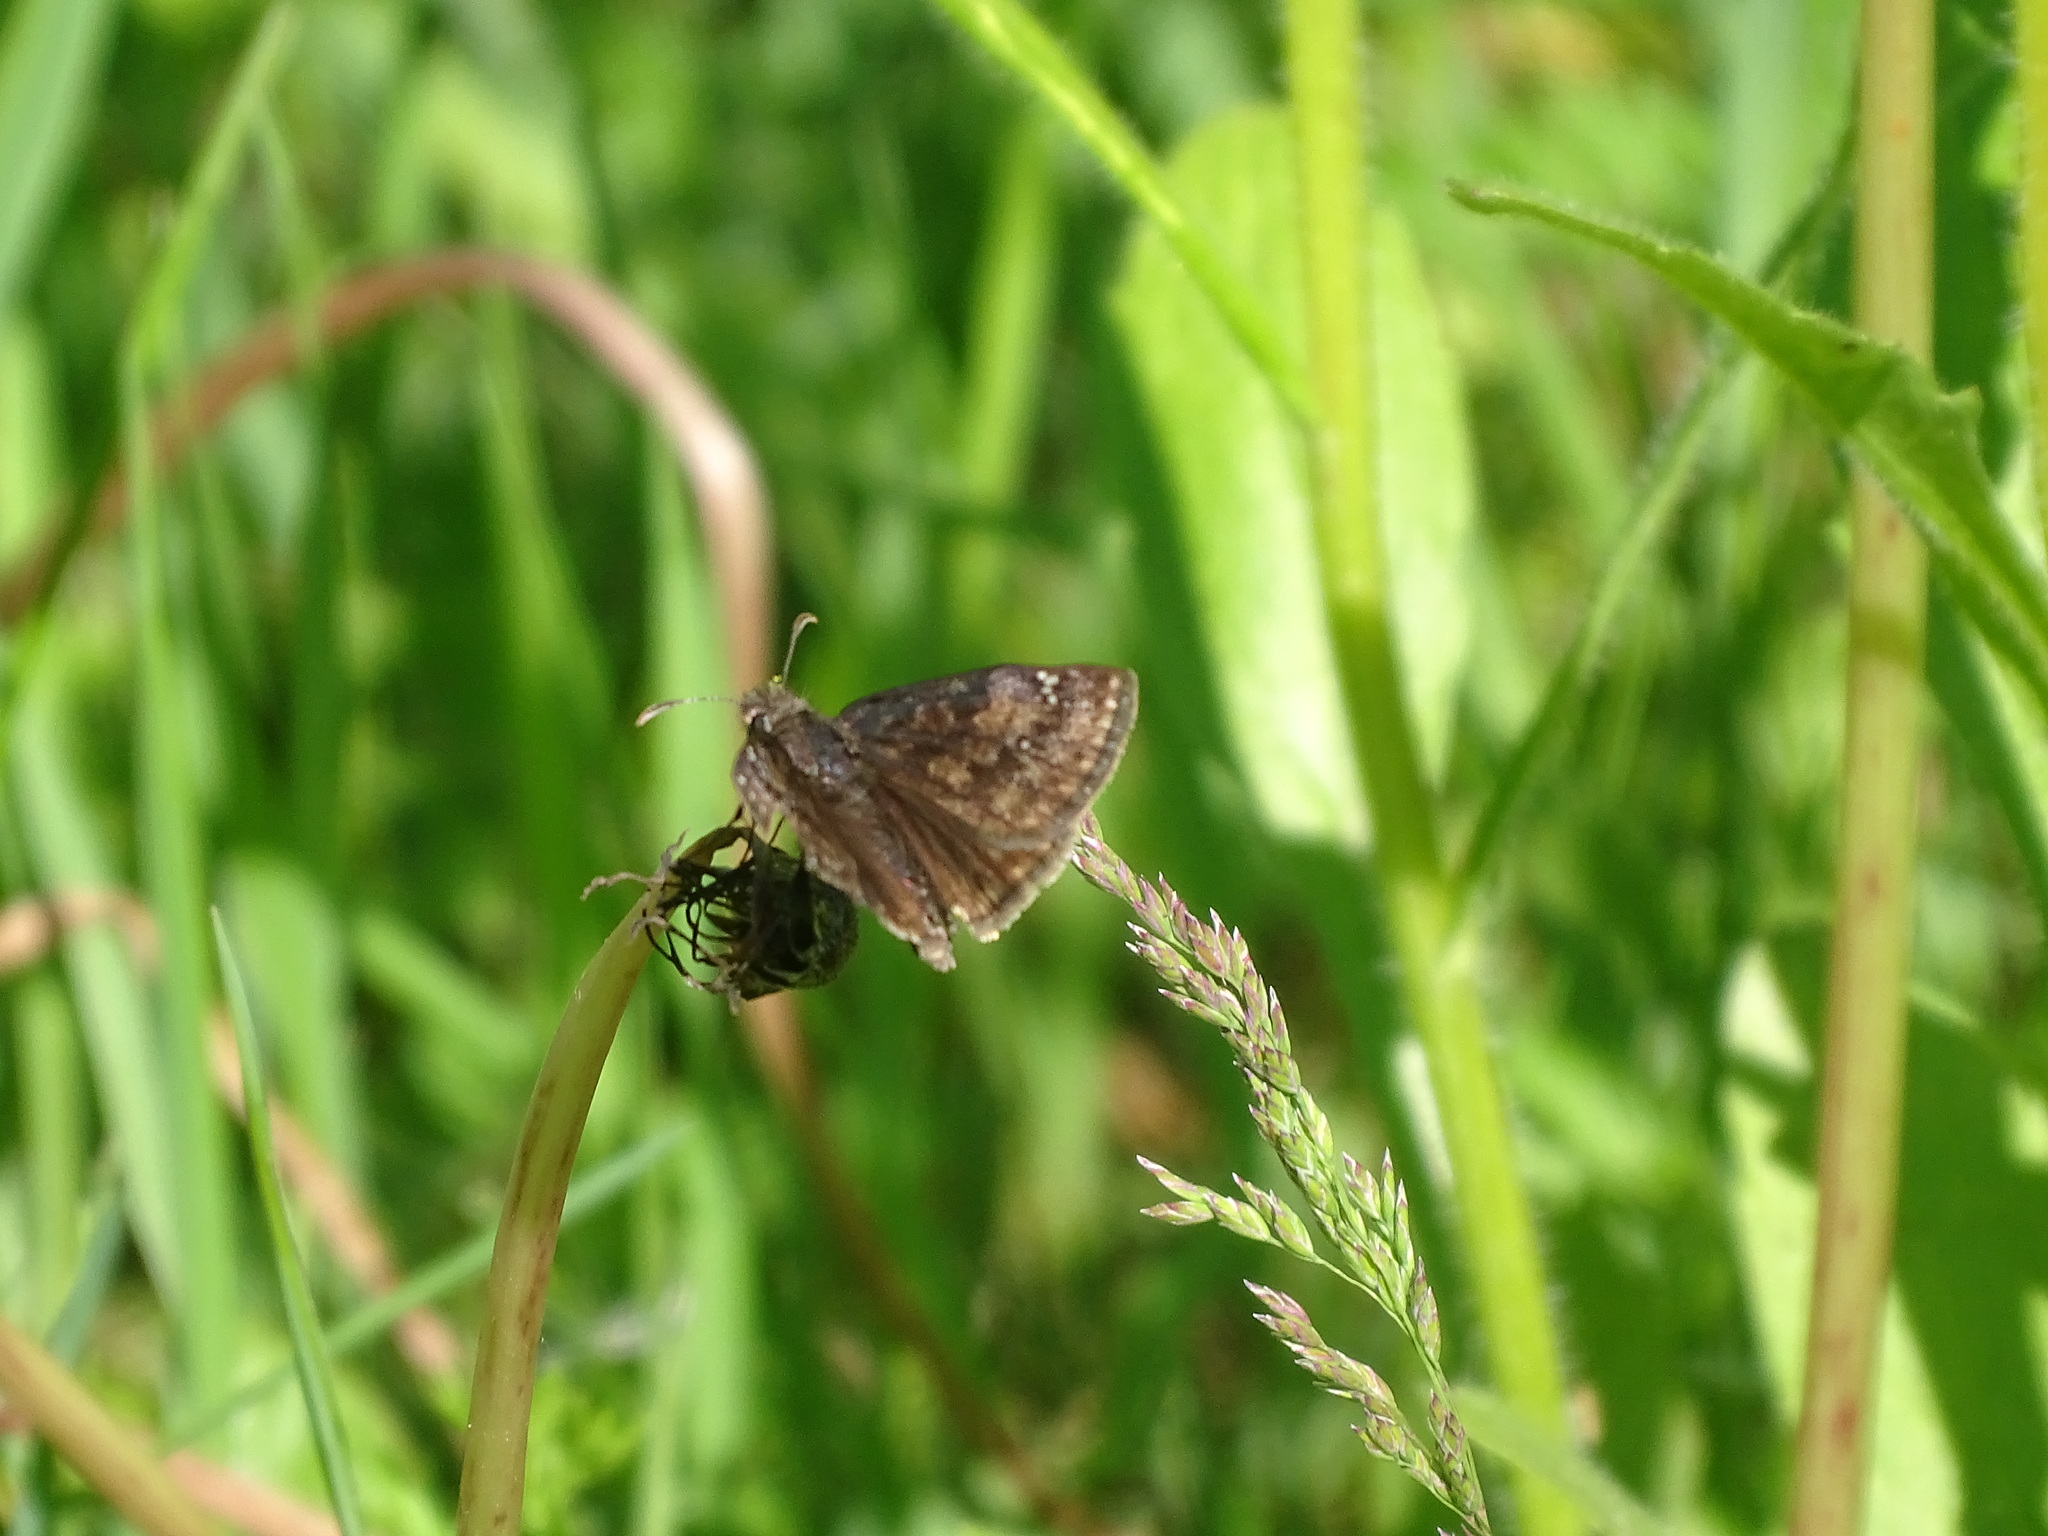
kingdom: Animalia
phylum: Arthropoda
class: Insecta
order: Lepidoptera
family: Hesperiidae
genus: Erynnis
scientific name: Erynnis baptisiae
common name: Wild indigo duskywing
